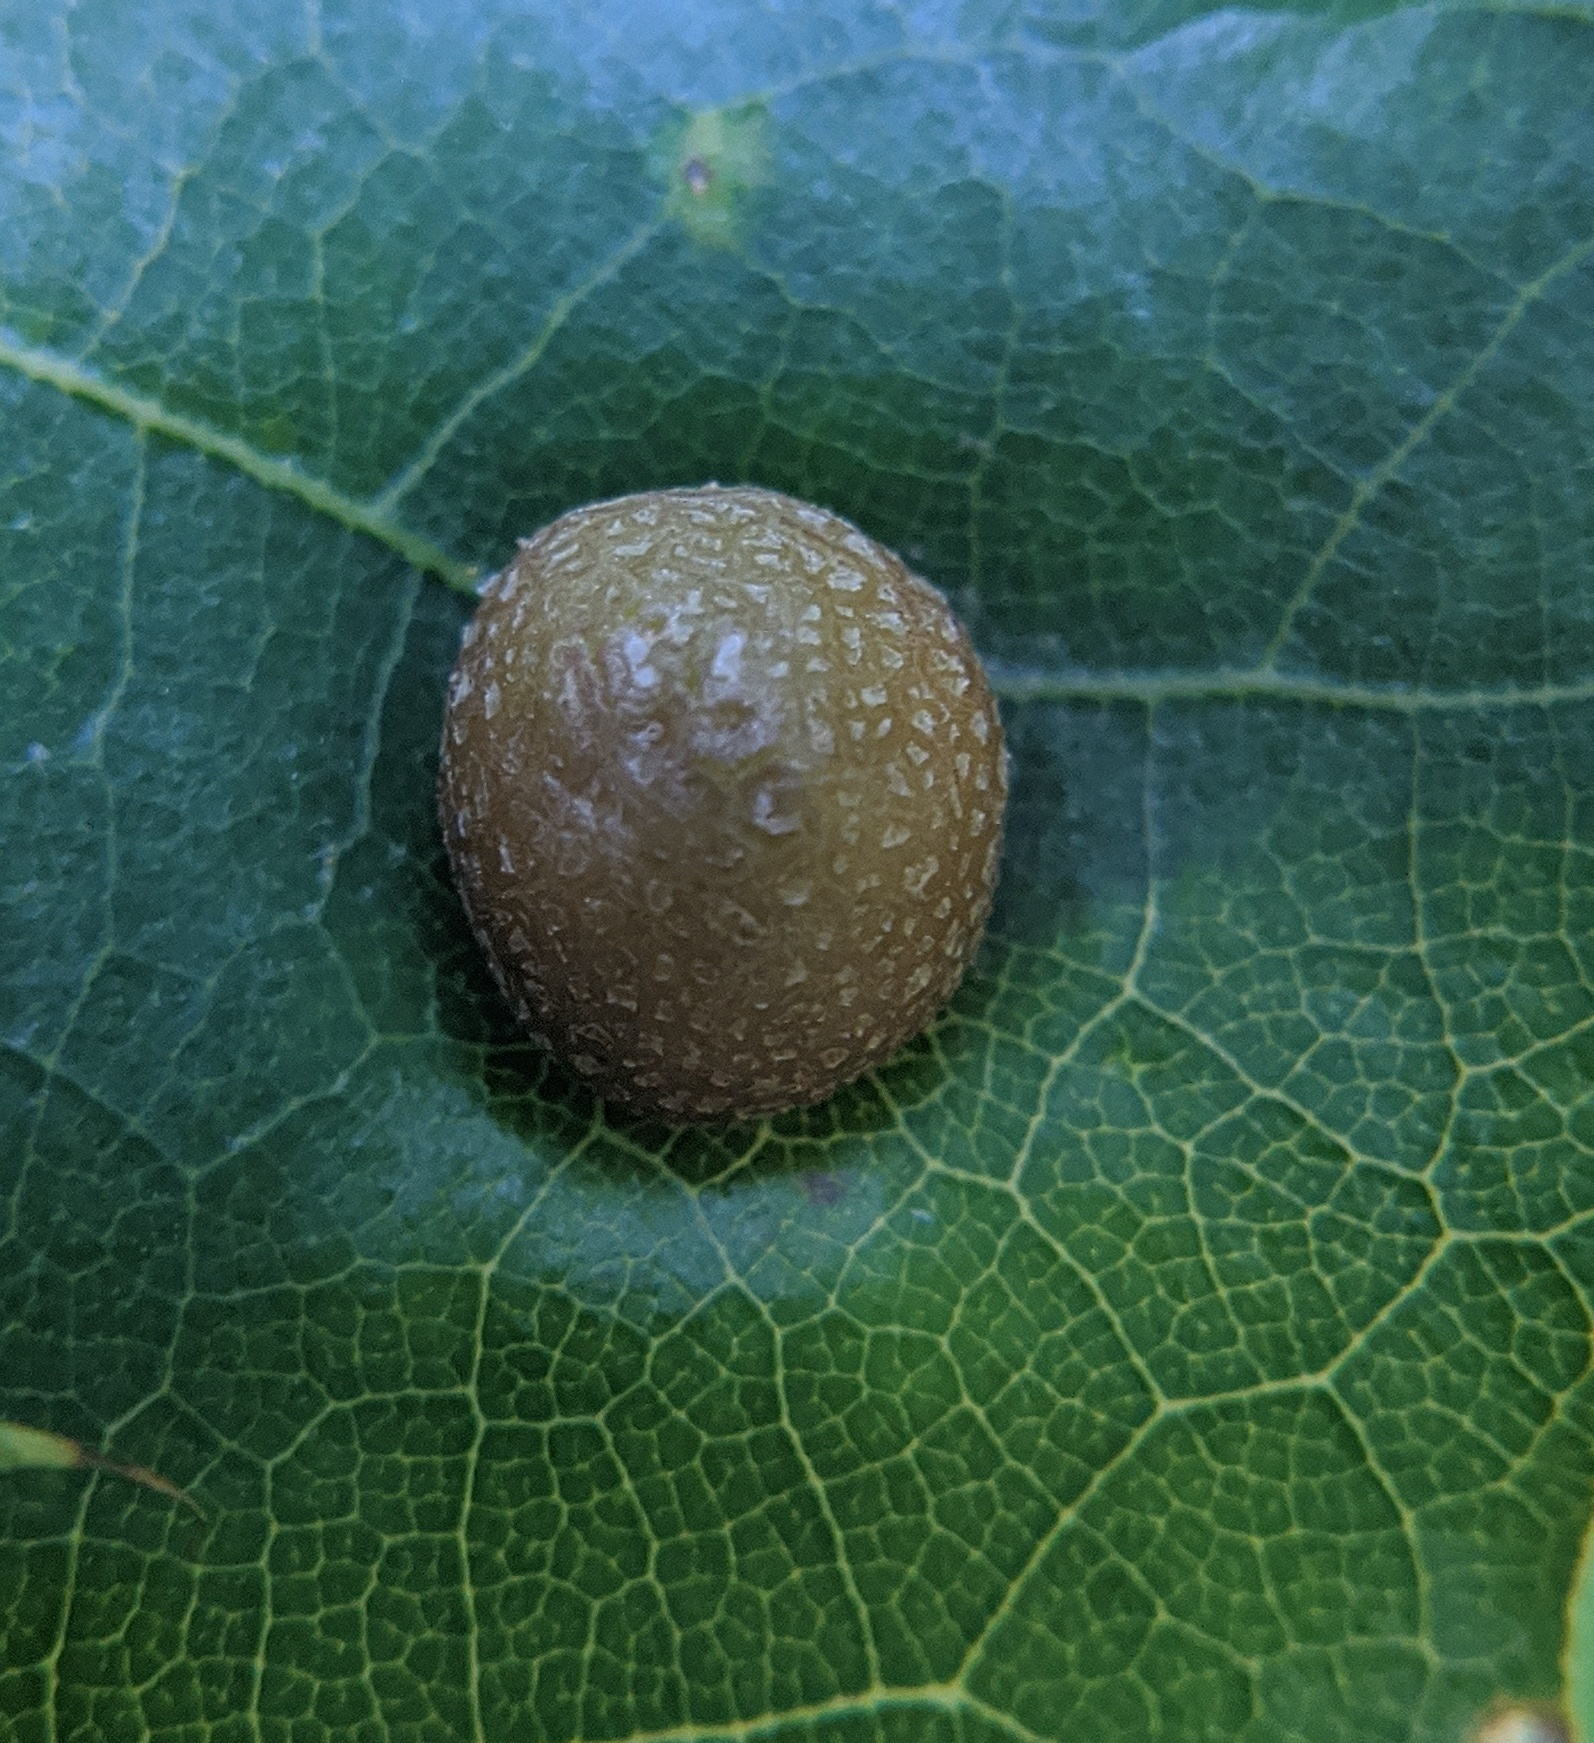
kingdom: Animalia
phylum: Arthropoda
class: Insecta
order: Diptera
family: Cecidomyiidae
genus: Polystepha
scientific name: Polystepha pilulae
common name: Oak leaf gall midge
